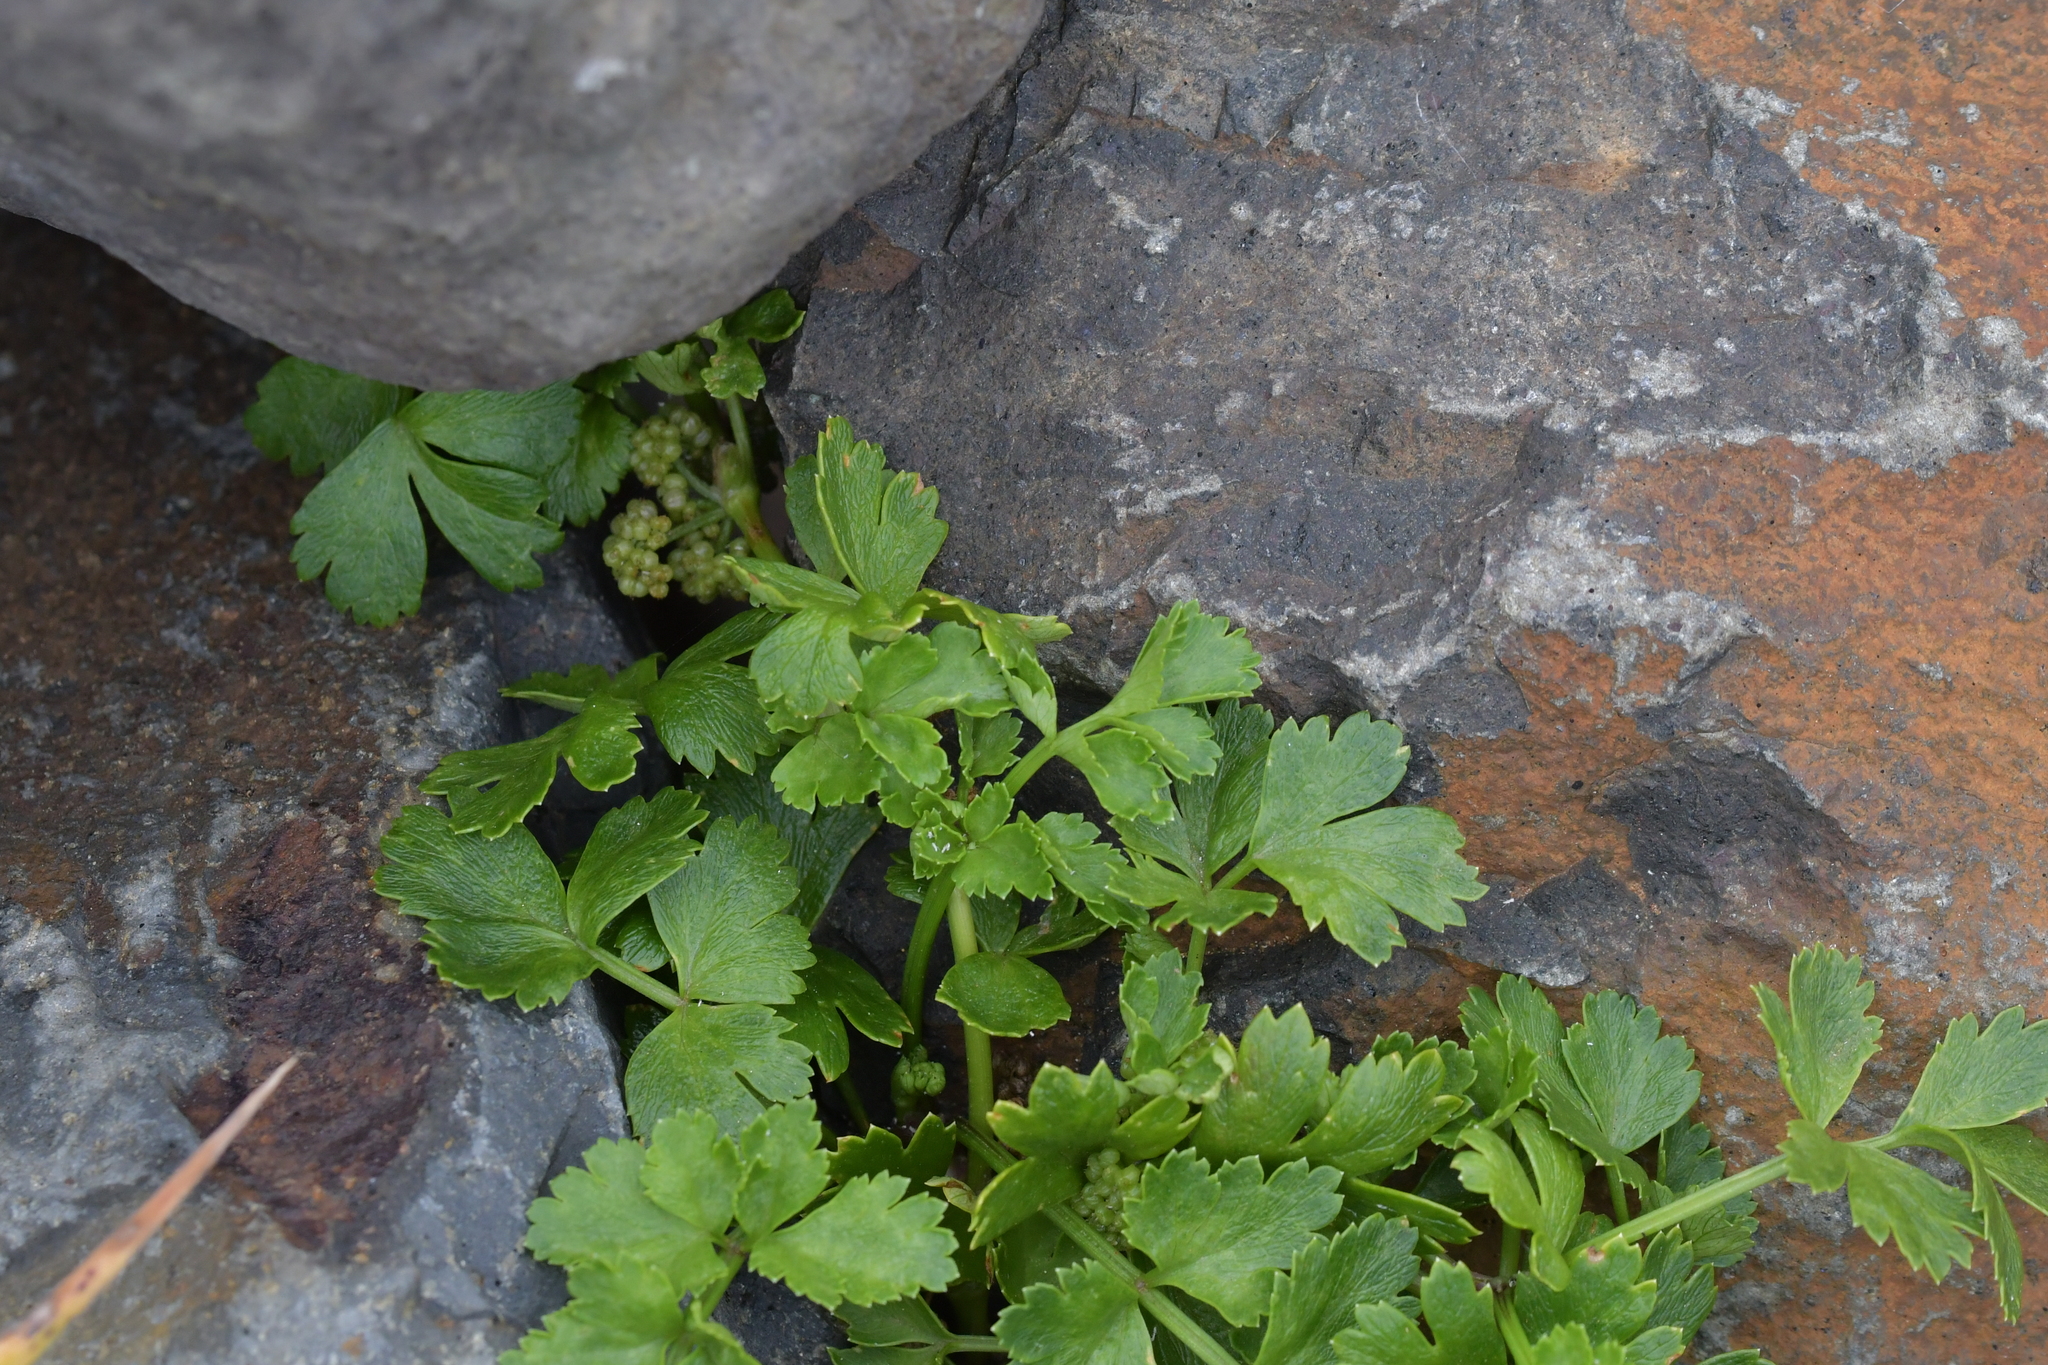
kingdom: Plantae
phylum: Tracheophyta
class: Magnoliopsida
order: Apiales
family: Apiaceae
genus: Apium
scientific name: Apium prostratum
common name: Prostrate marshwort
